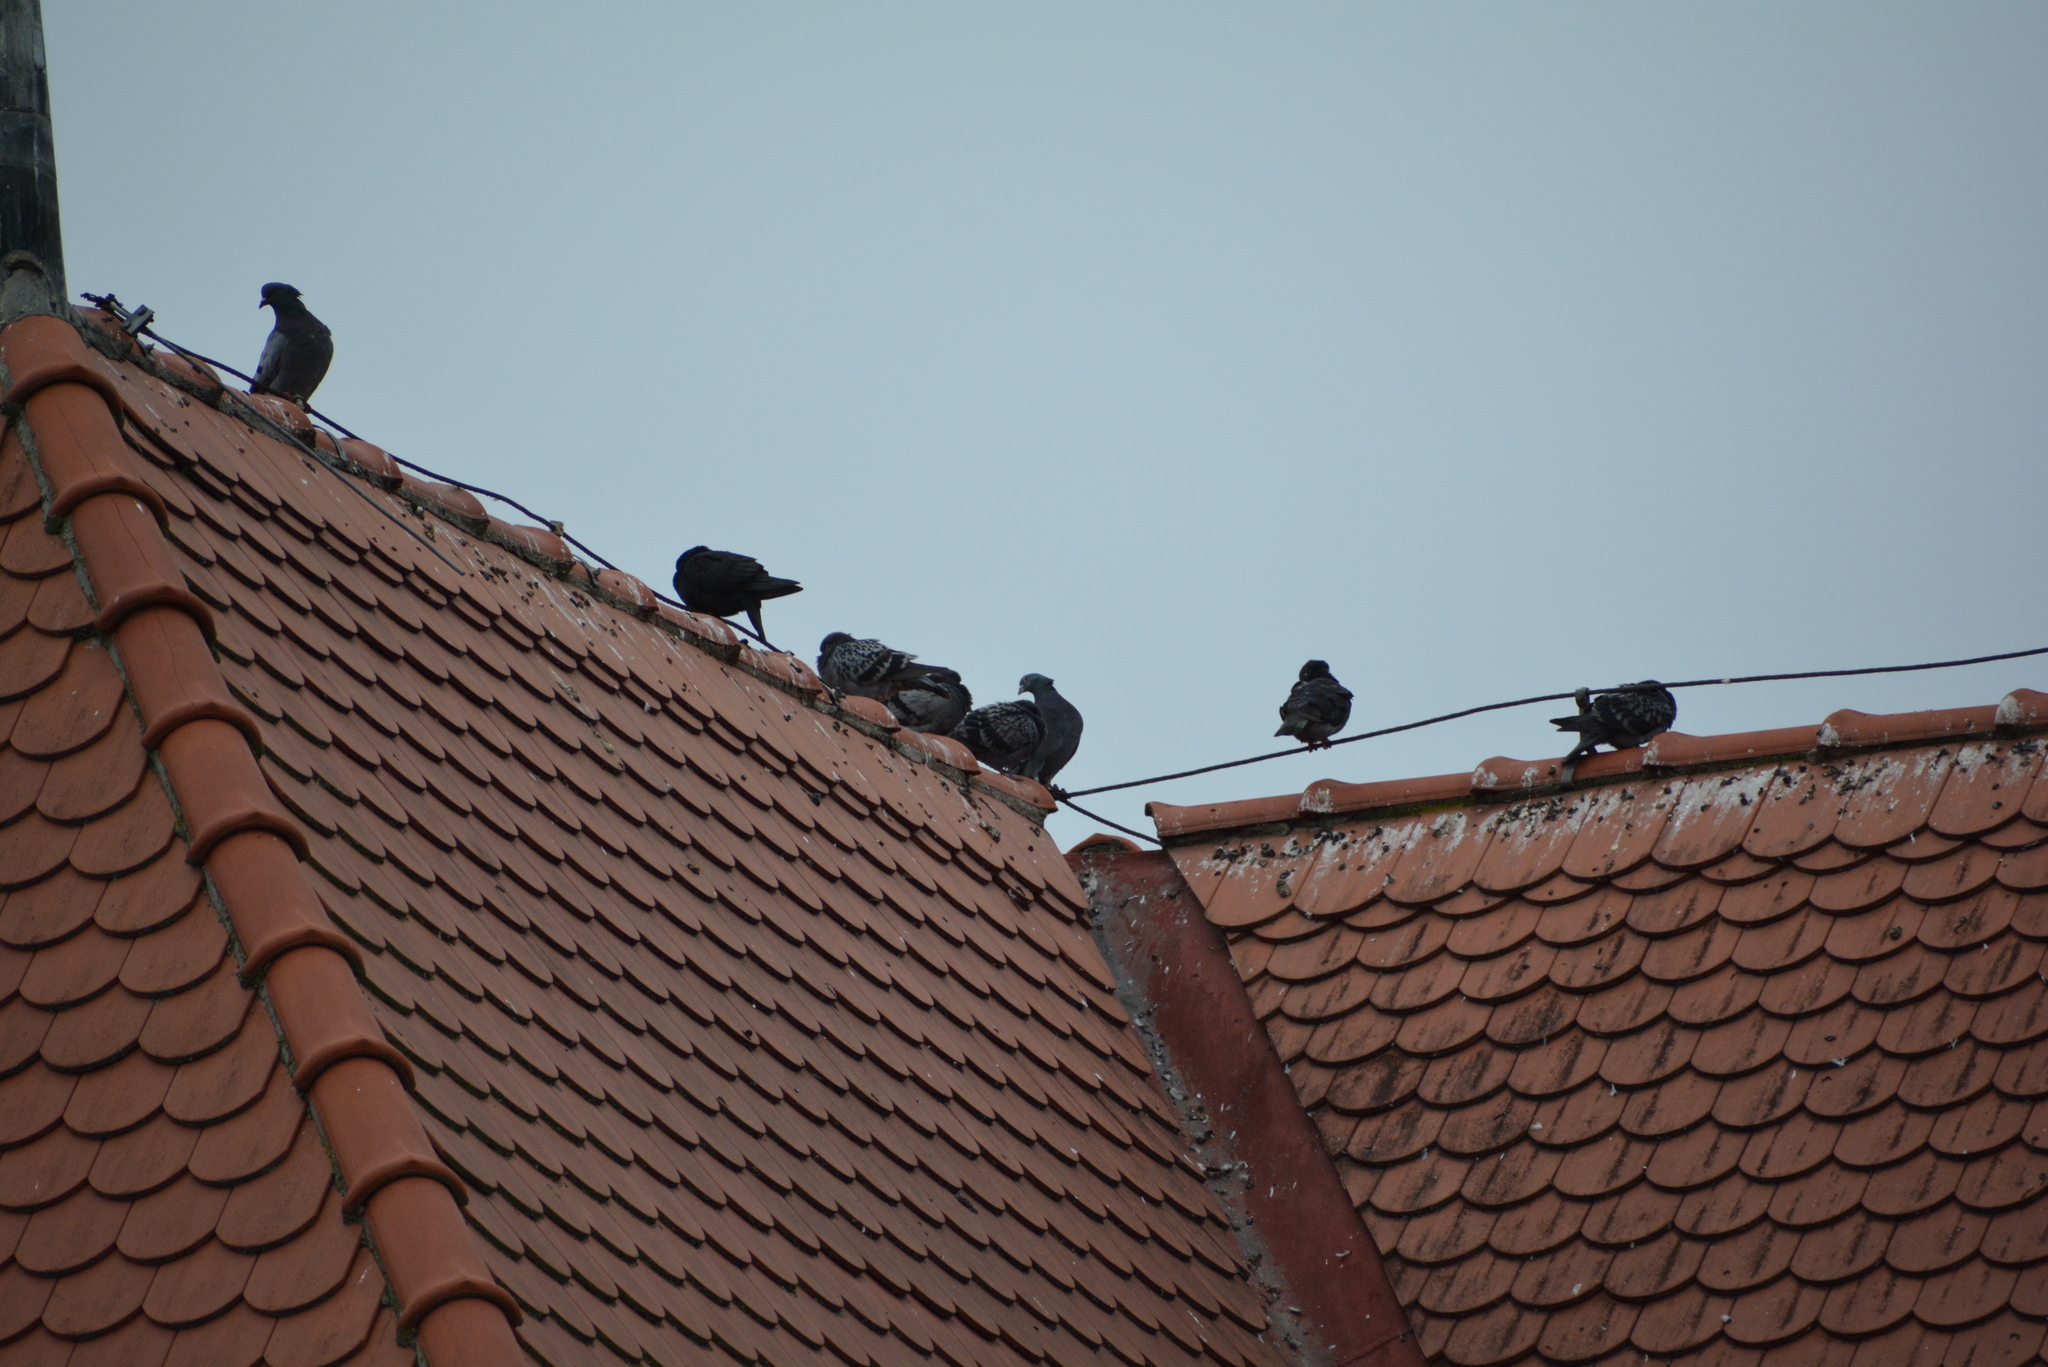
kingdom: Animalia
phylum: Chordata
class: Aves
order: Columbiformes
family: Columbidae
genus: Columba
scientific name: Columba livia
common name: Rock pigeon
